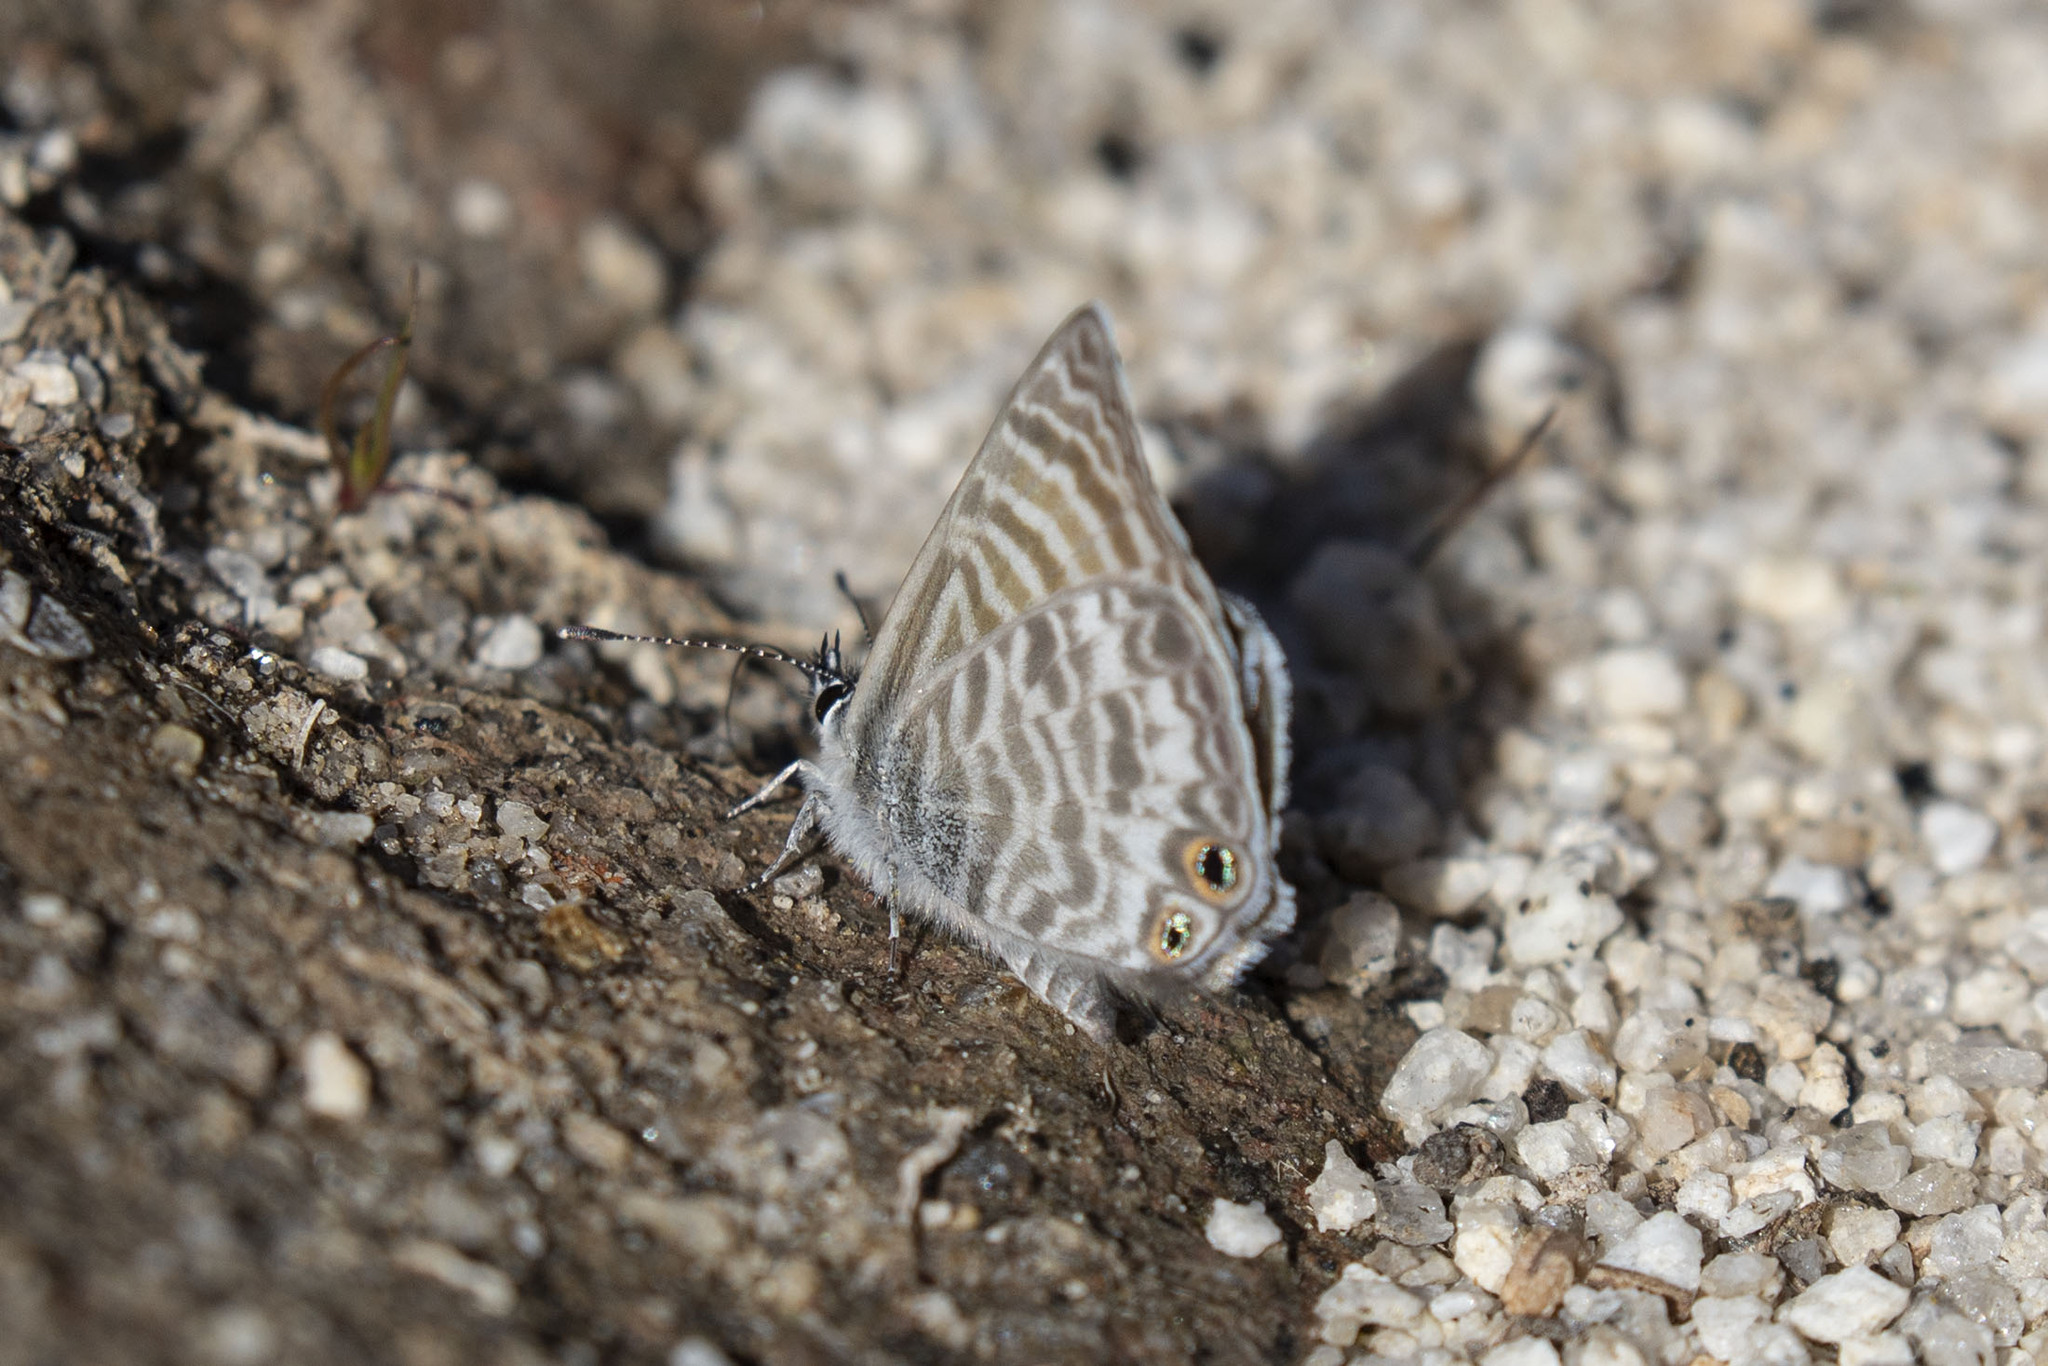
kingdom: Animalia
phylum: Arthropoda
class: Insecta
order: Lepidoptera
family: Lycaenidae
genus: Leptotes
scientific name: Leptotes marina
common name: Marine blue
